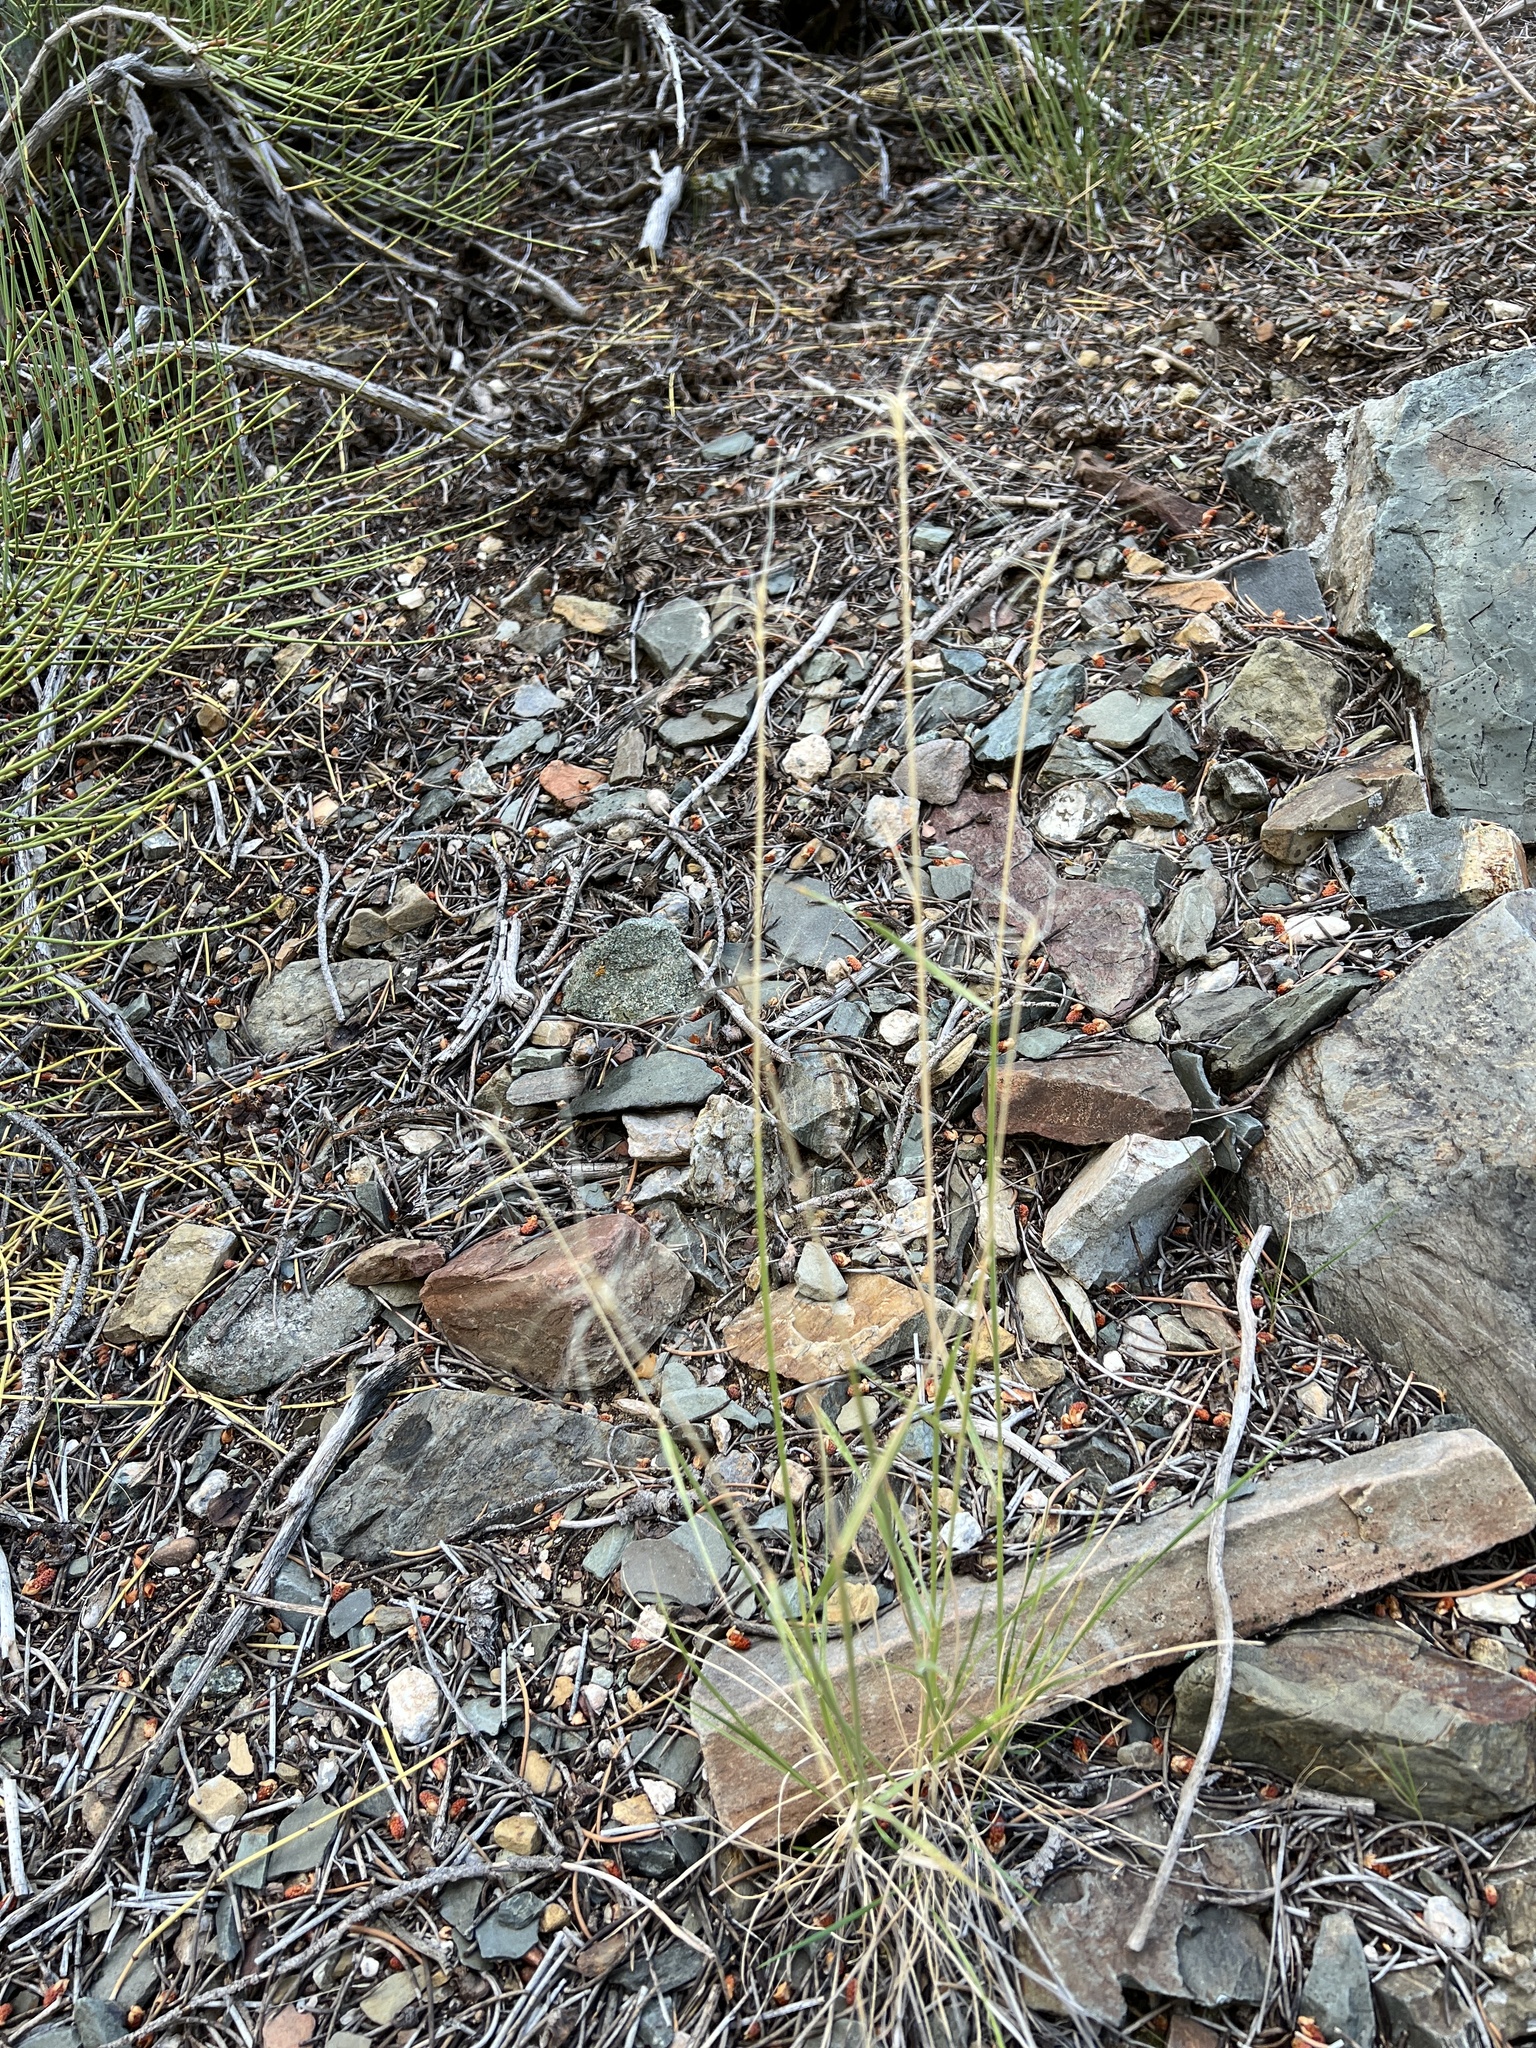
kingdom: Plantae
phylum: Tracheophyta
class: Liliopsida
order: Poales
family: Poaceae
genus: Elymus
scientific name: Elymus elymoides
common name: Bottlebrush squirreltail
